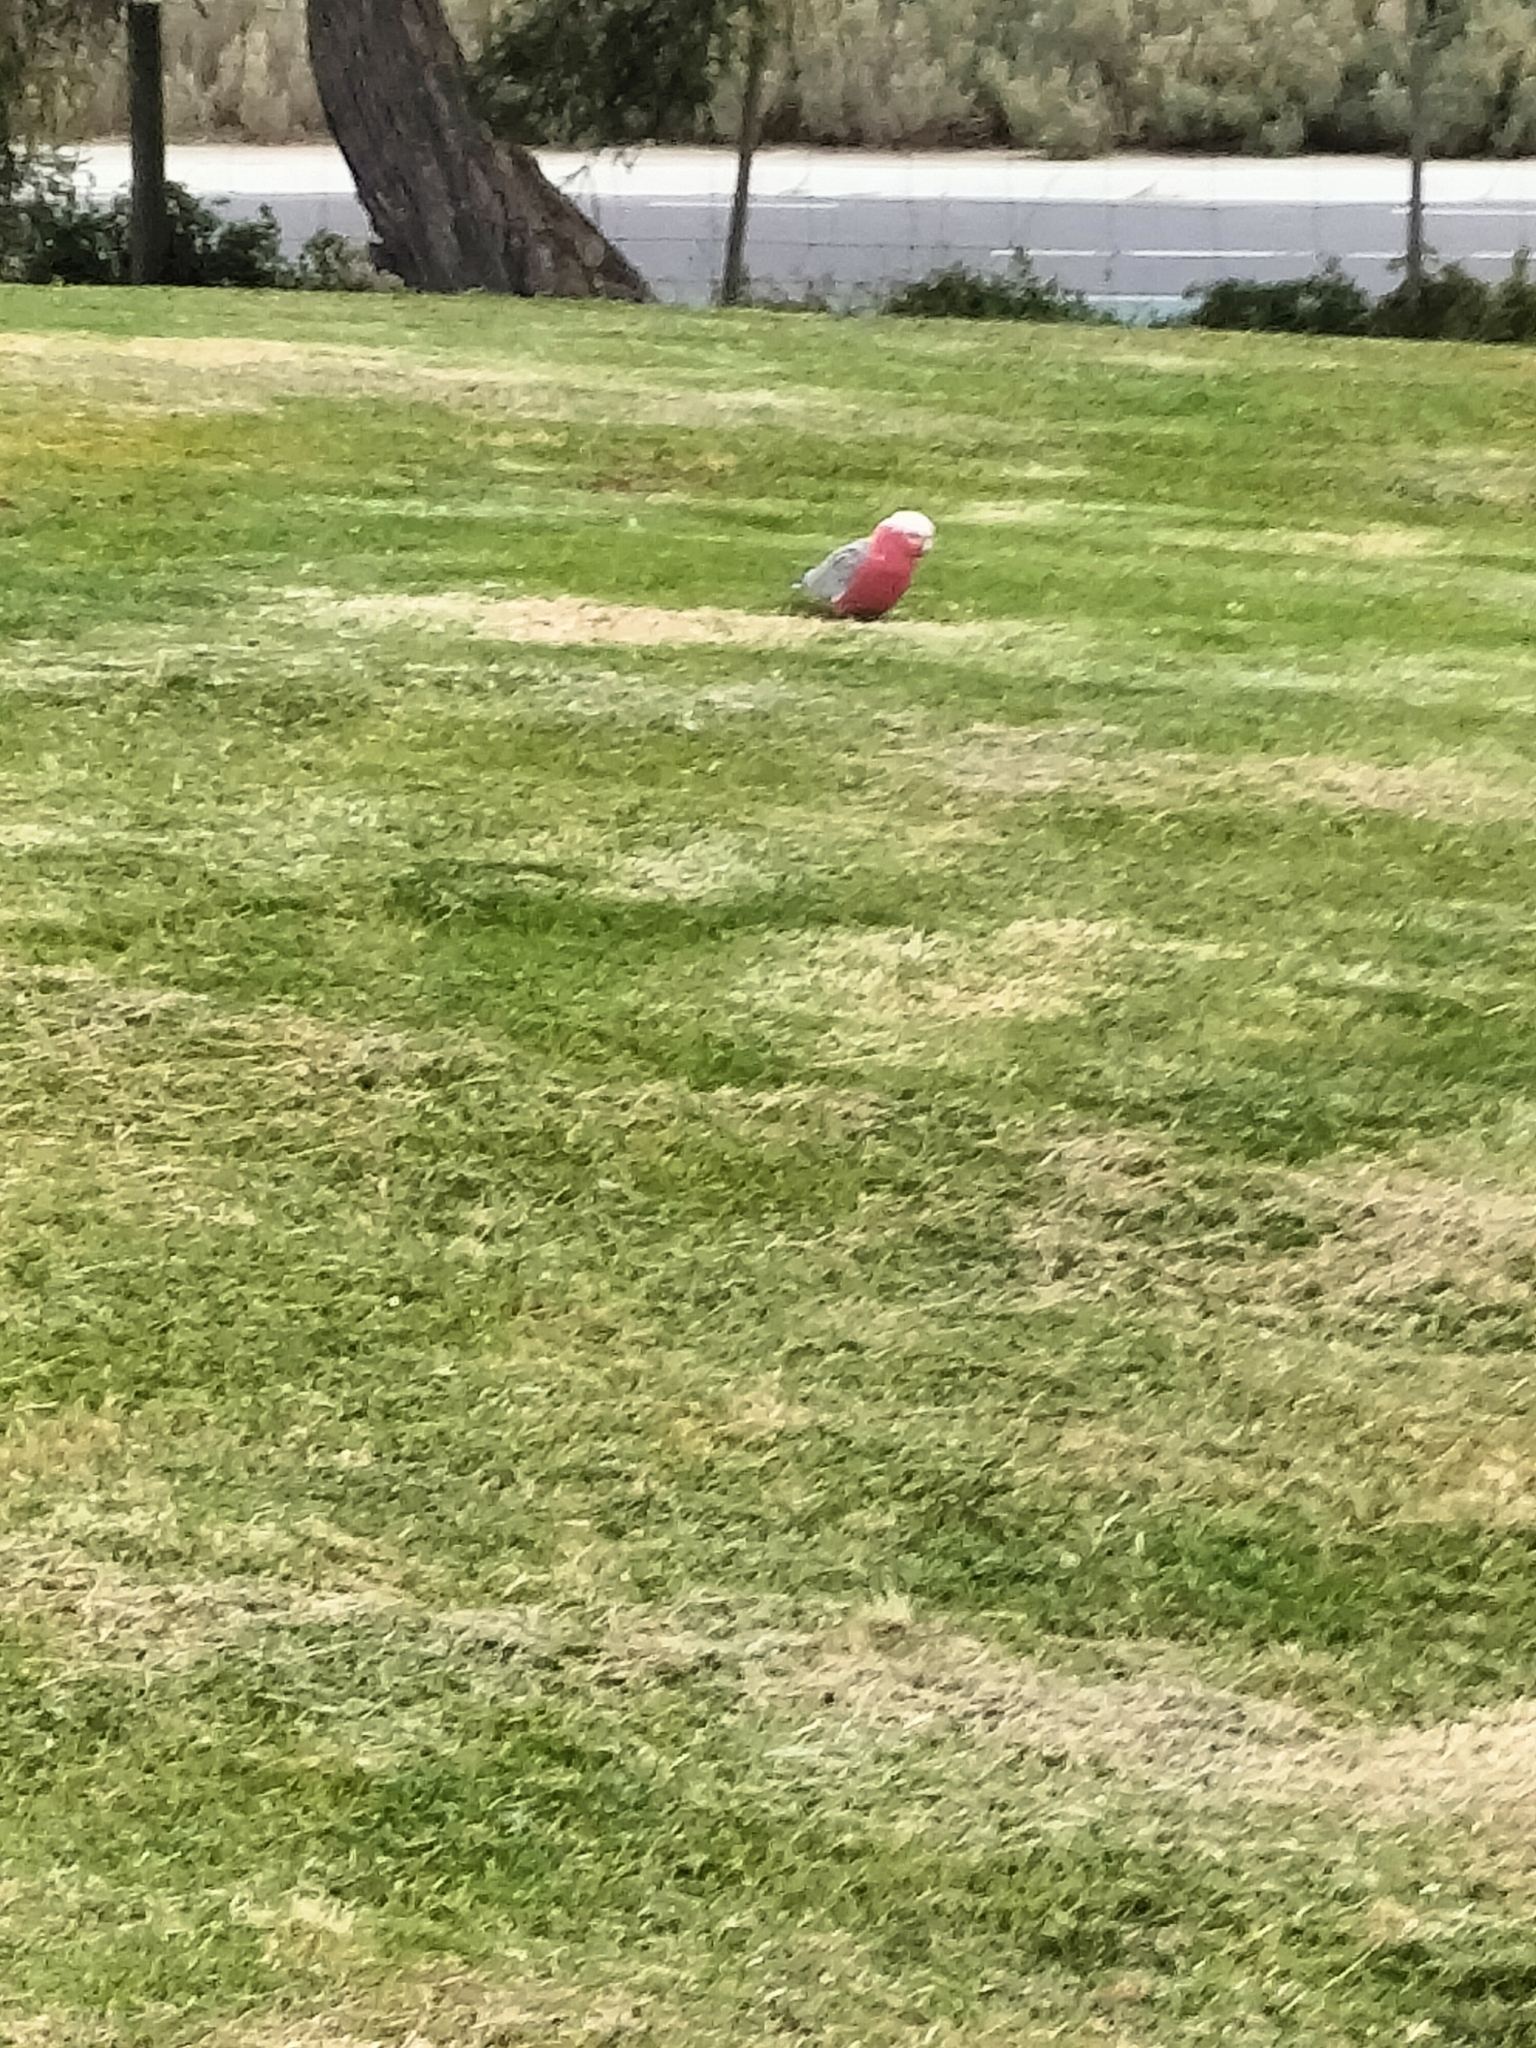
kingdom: Animalia
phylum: Chordata
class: Aves
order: Psittaciformes
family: Psittacidae
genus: Eolophus
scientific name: Eolophus roseicapilla
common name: Galah
